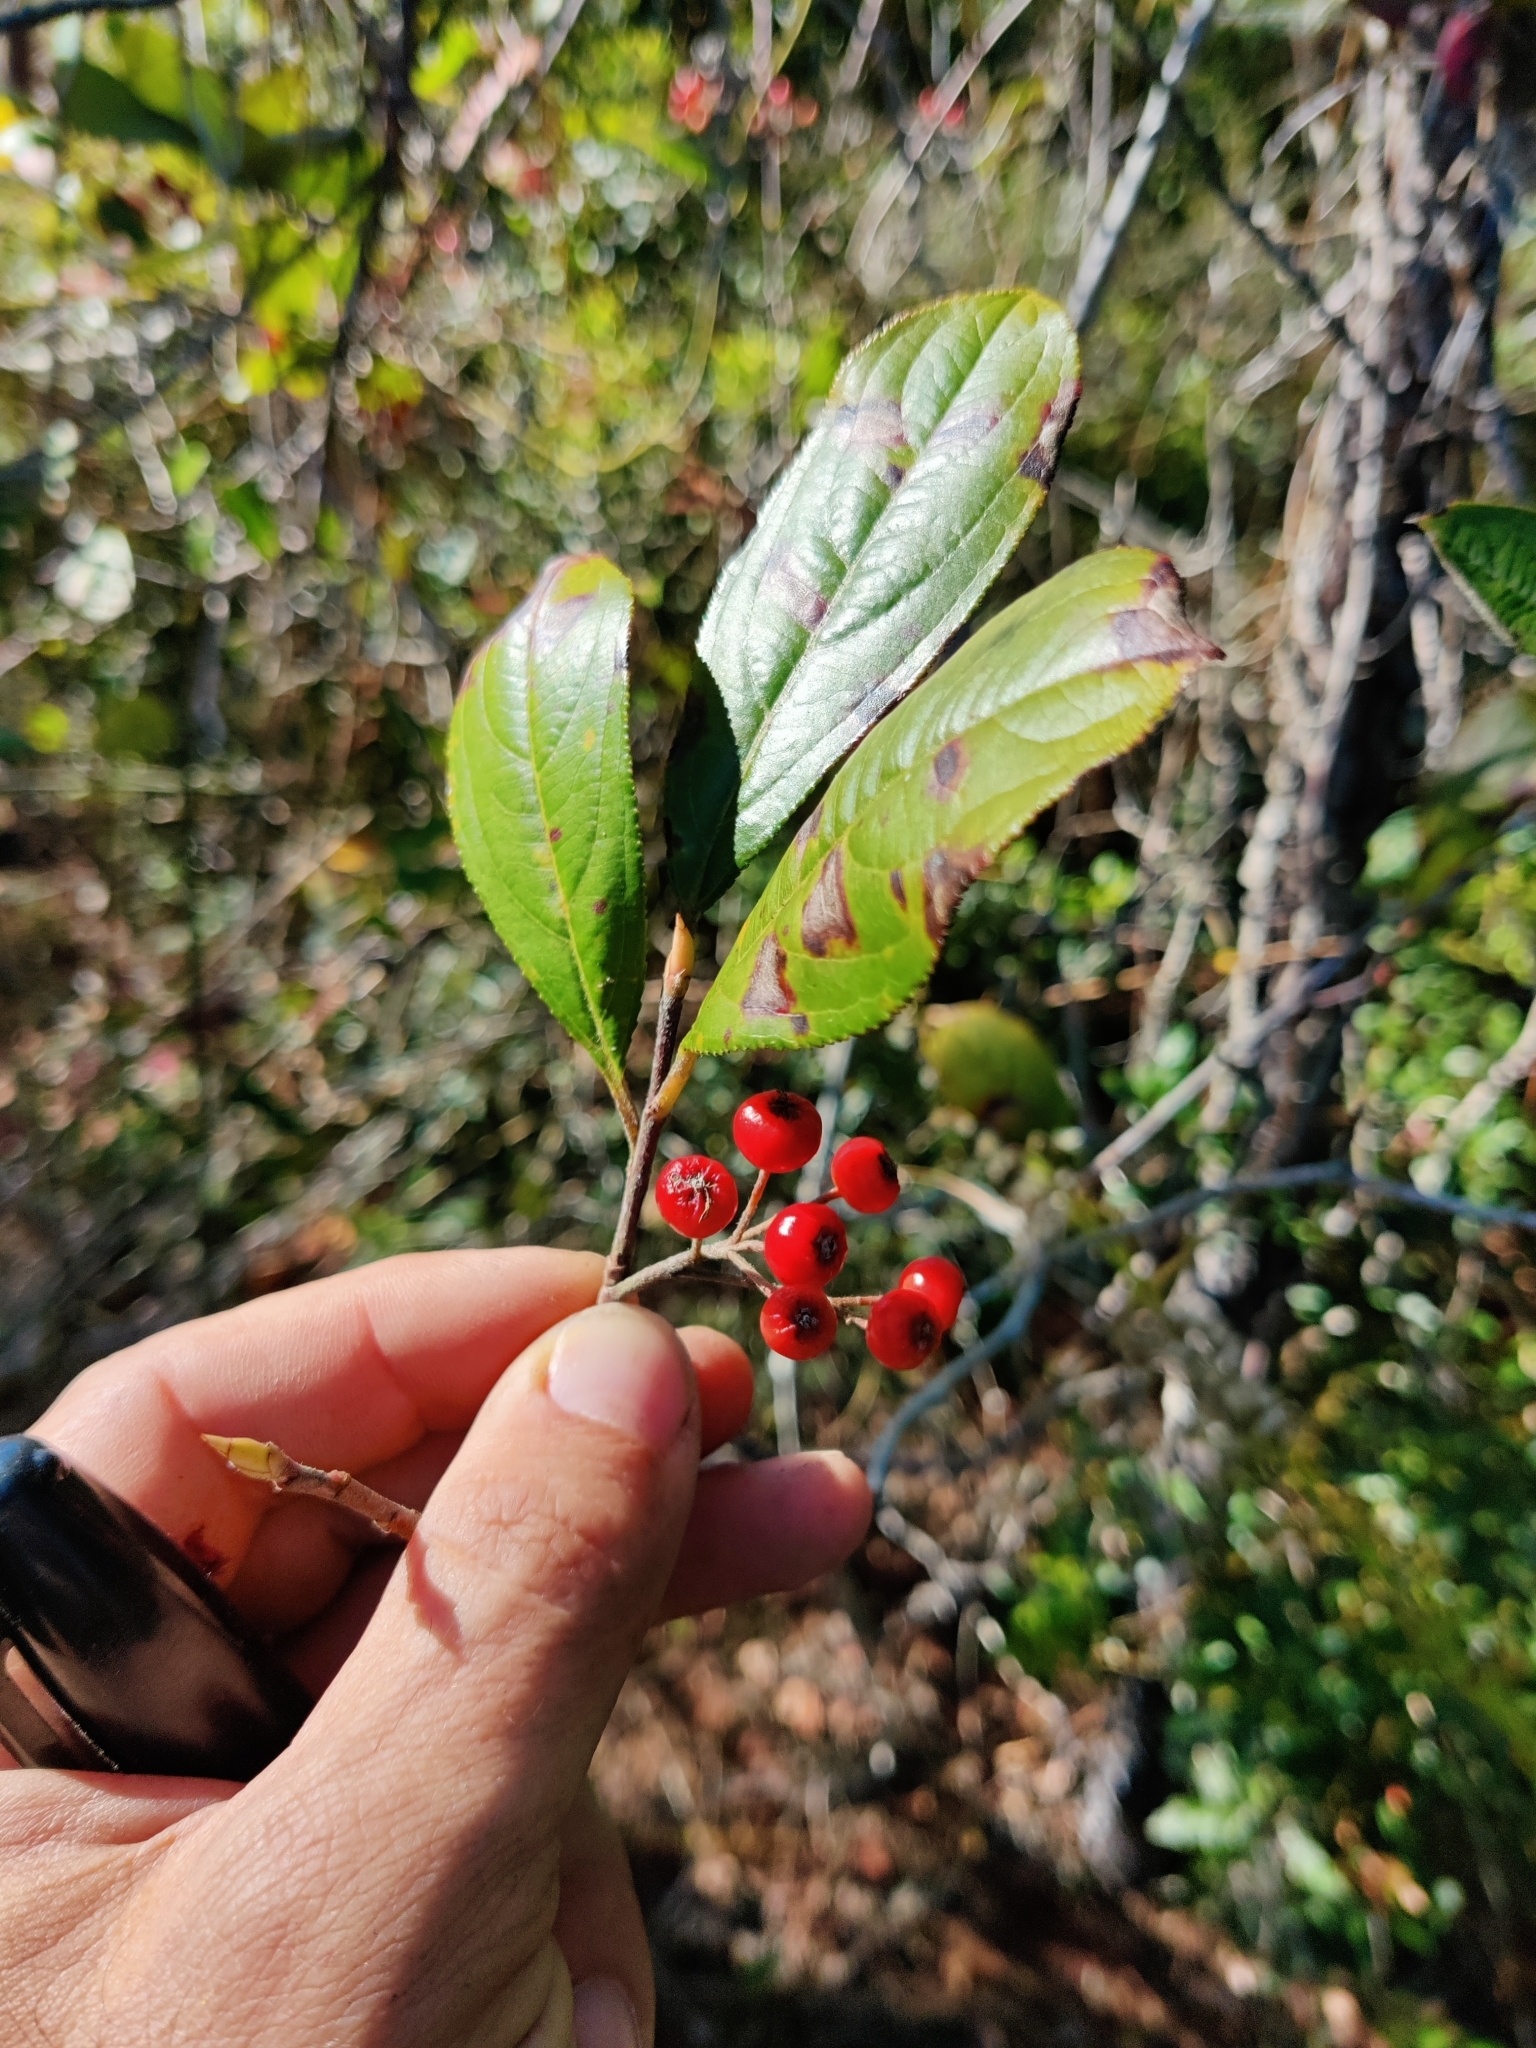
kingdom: Plantae
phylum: Tracheophyta
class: Magnoliopsida
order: Rosales
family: Rosaceae
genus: Aronia
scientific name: Aronia arbutifolia
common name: Red chokeberry
